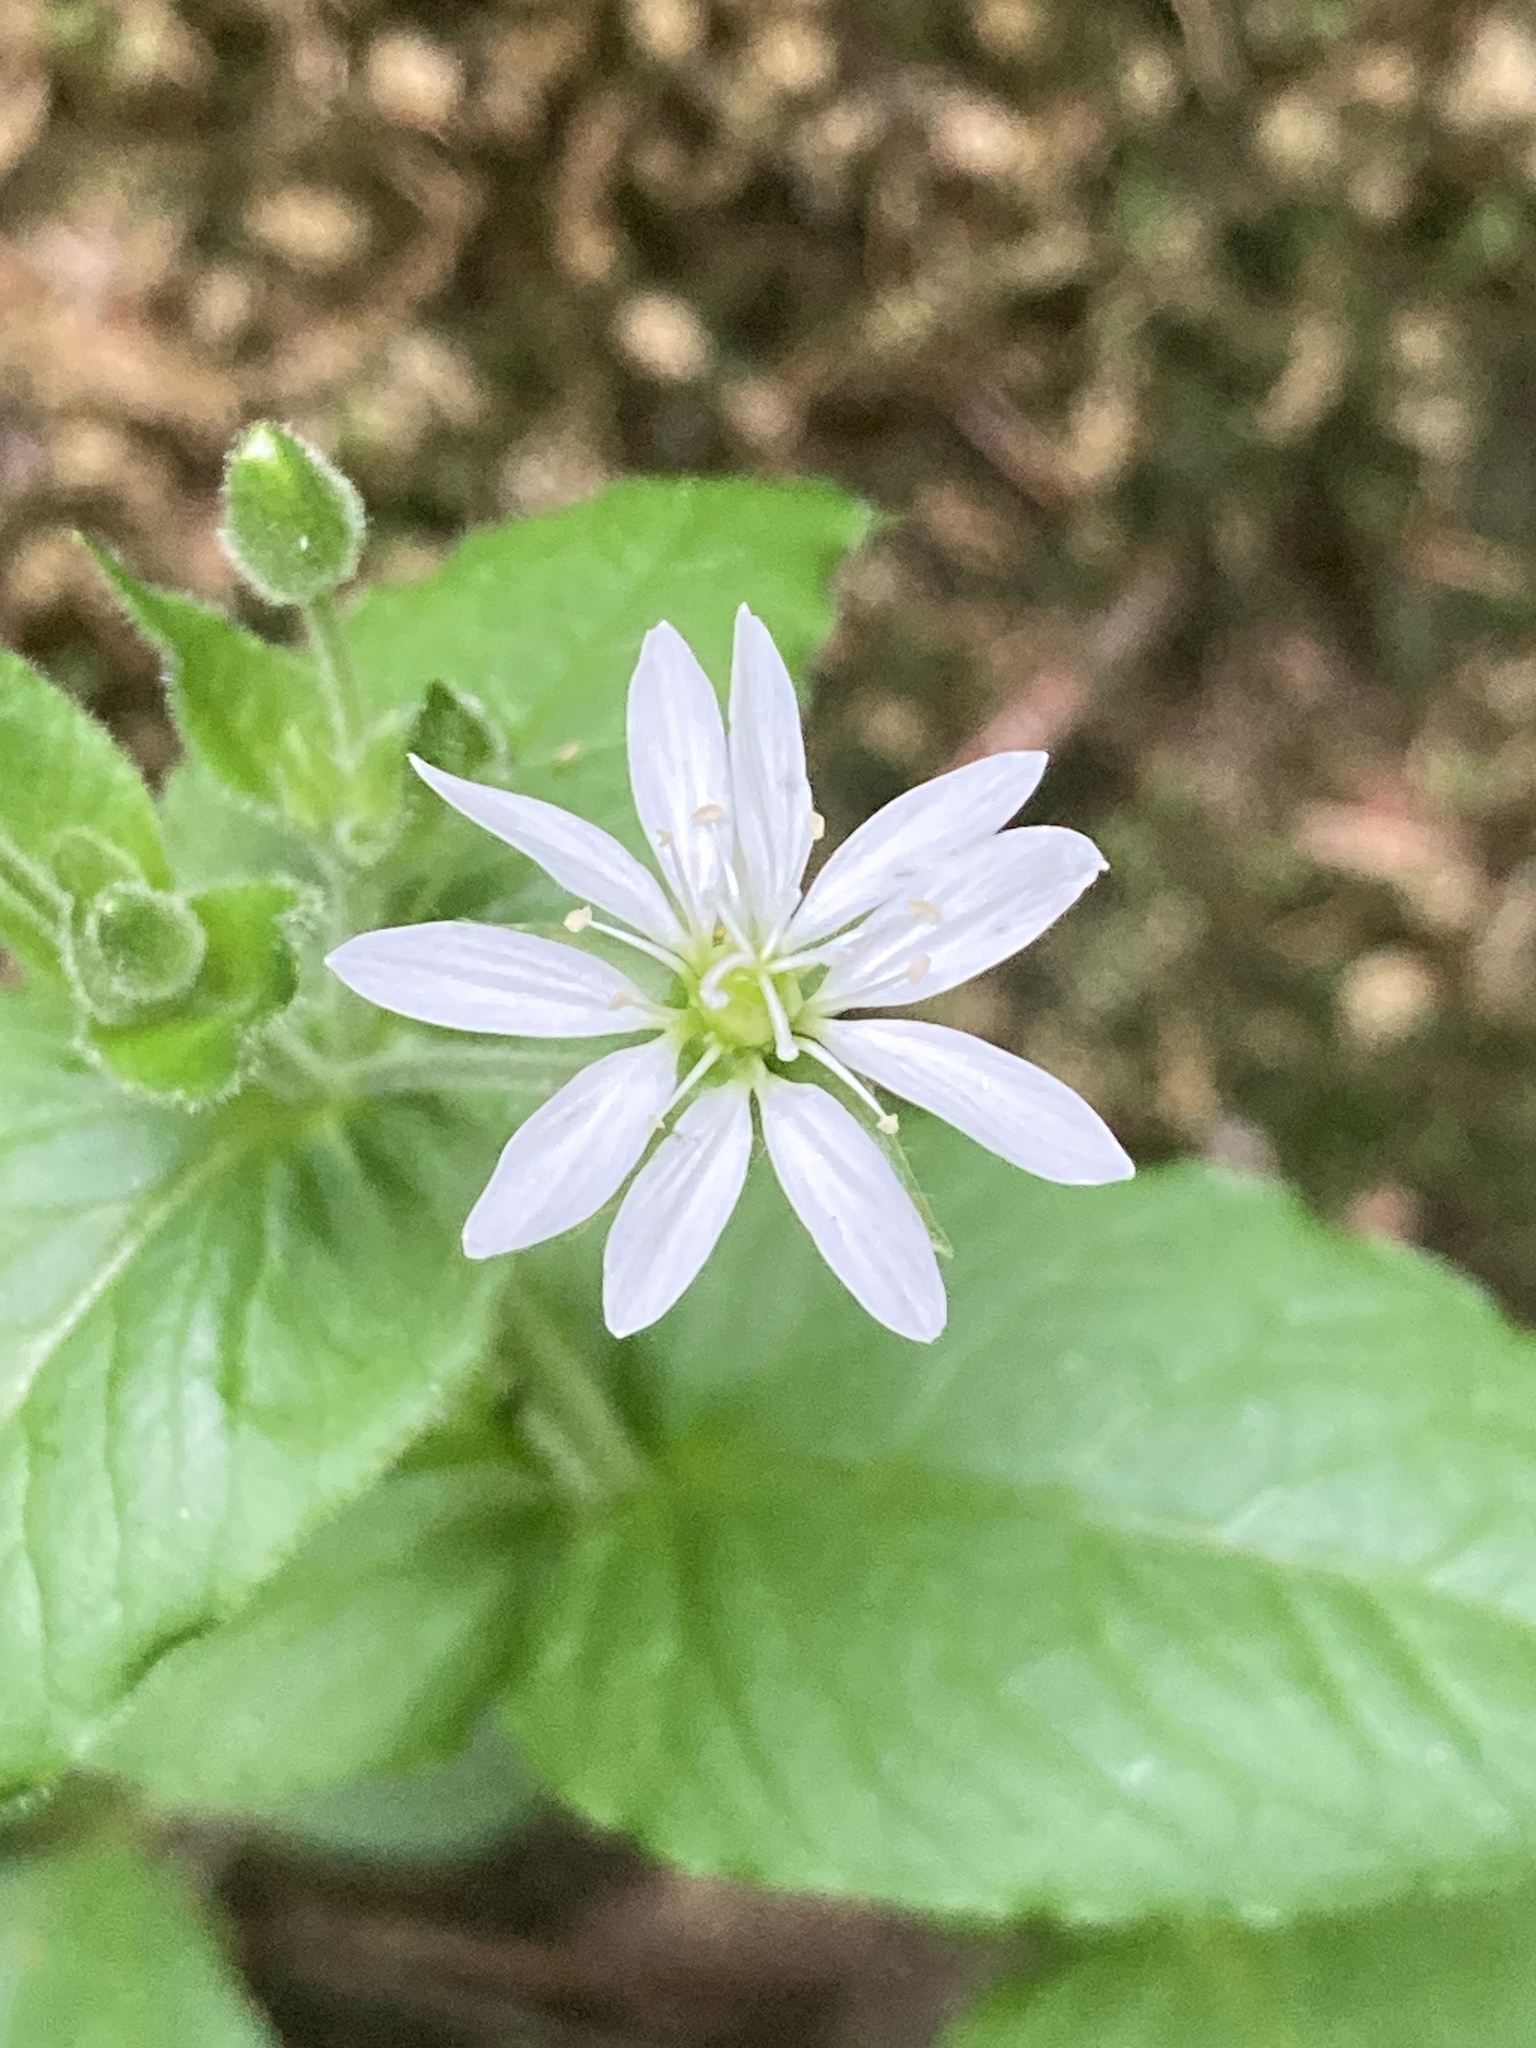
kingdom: Plantae
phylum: Tracheophyta
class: Magnoliopsida
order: Caryophyllales
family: Caryophyllaceae
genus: Stellaria
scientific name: Stellaria aquatica
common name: Water chickweed
